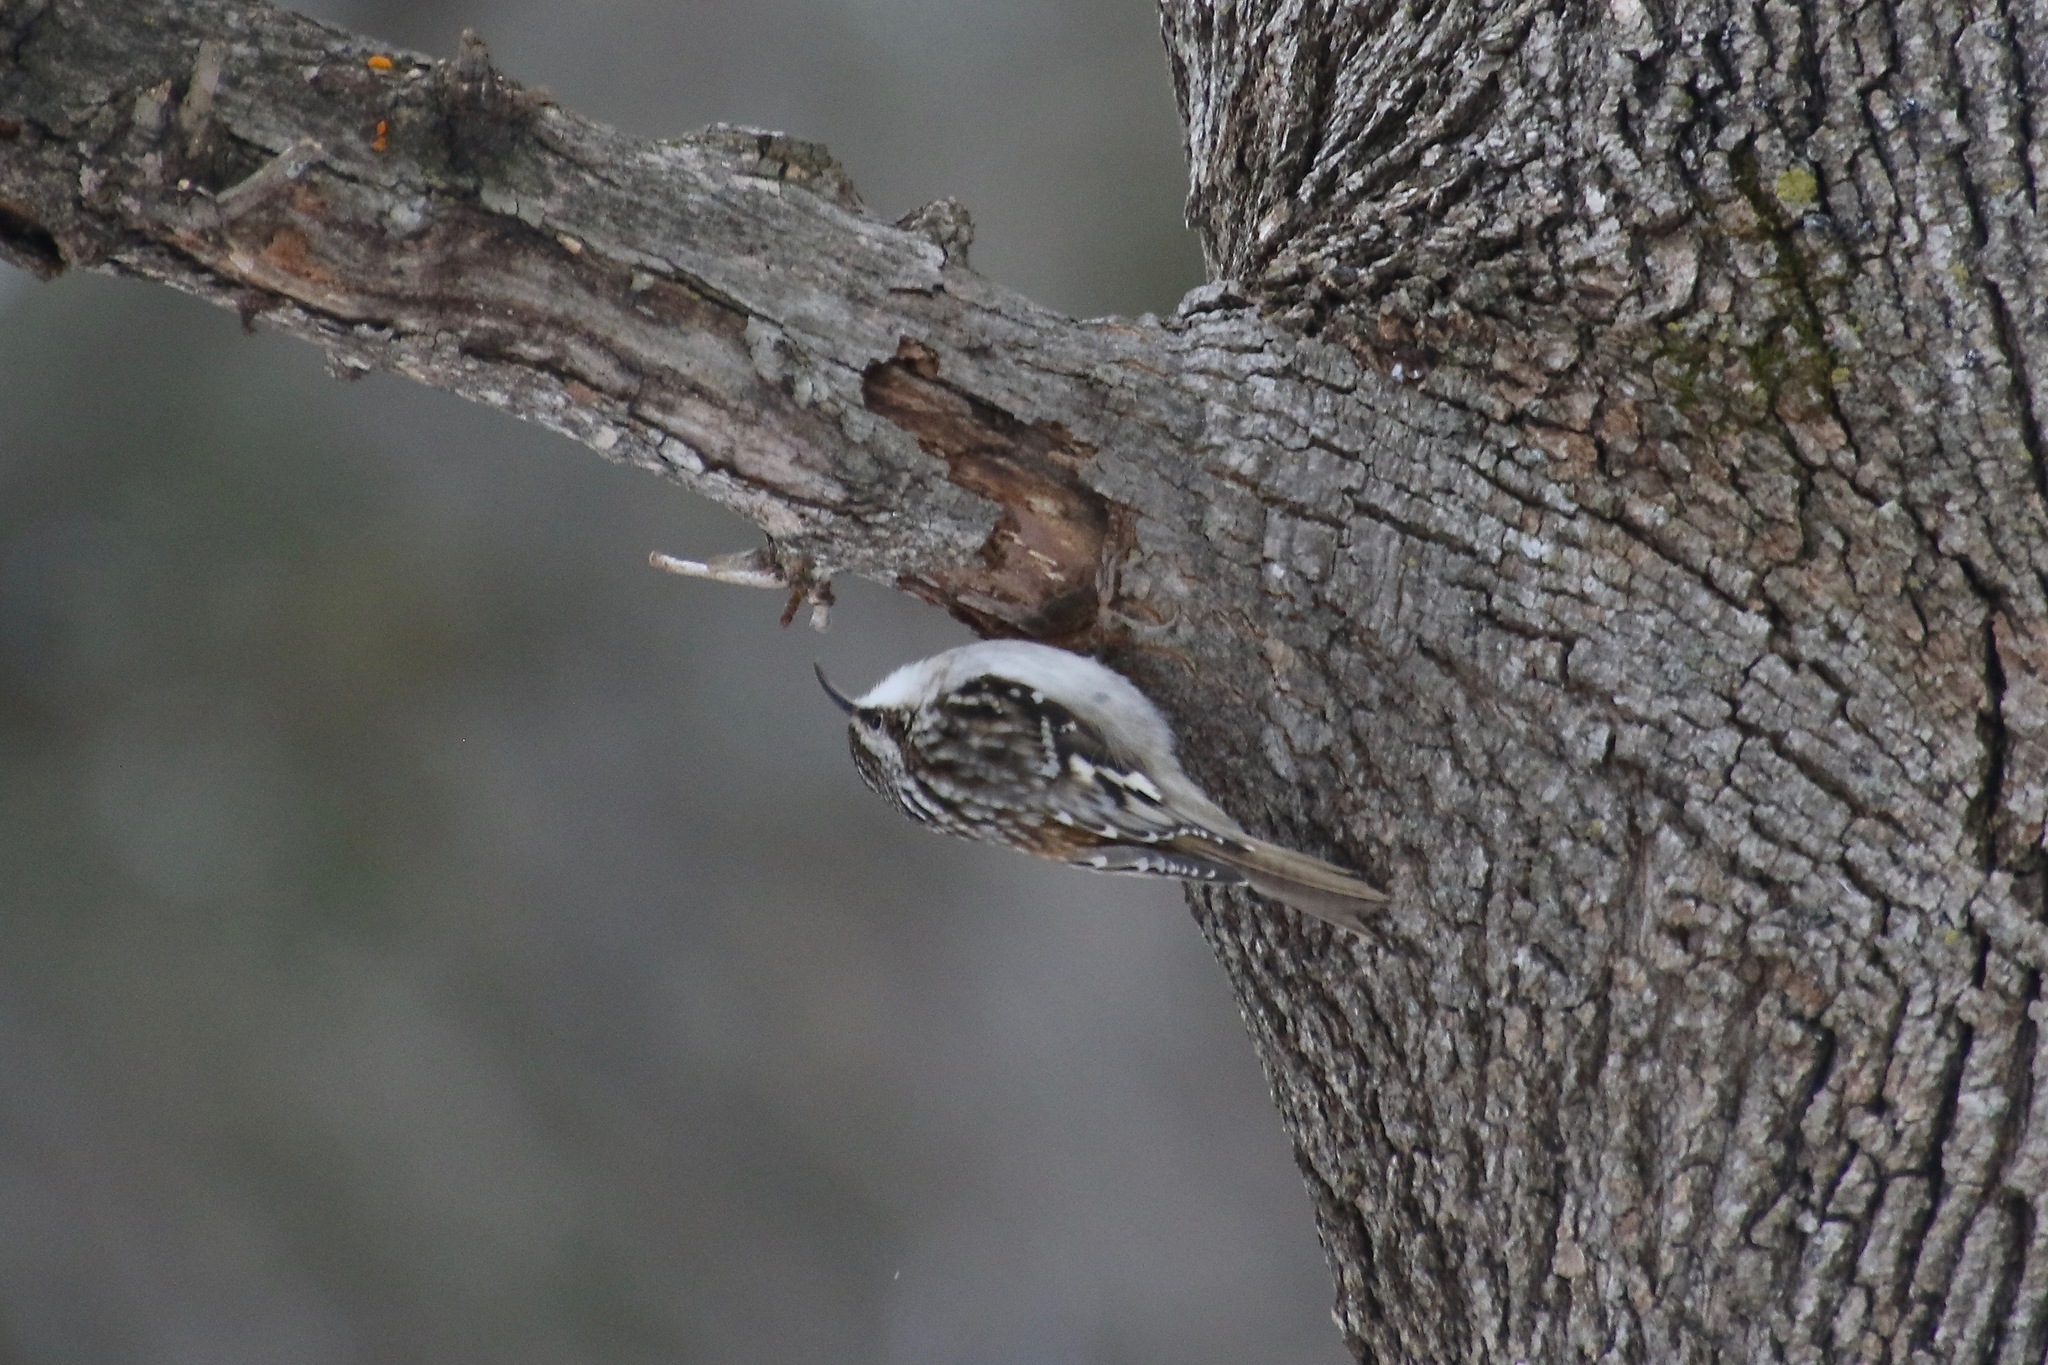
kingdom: Animalia
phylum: Chordata
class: Aves
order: Passeriformes
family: Certhiidae
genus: Certhia
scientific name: Certhia americana
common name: Brown creeper
